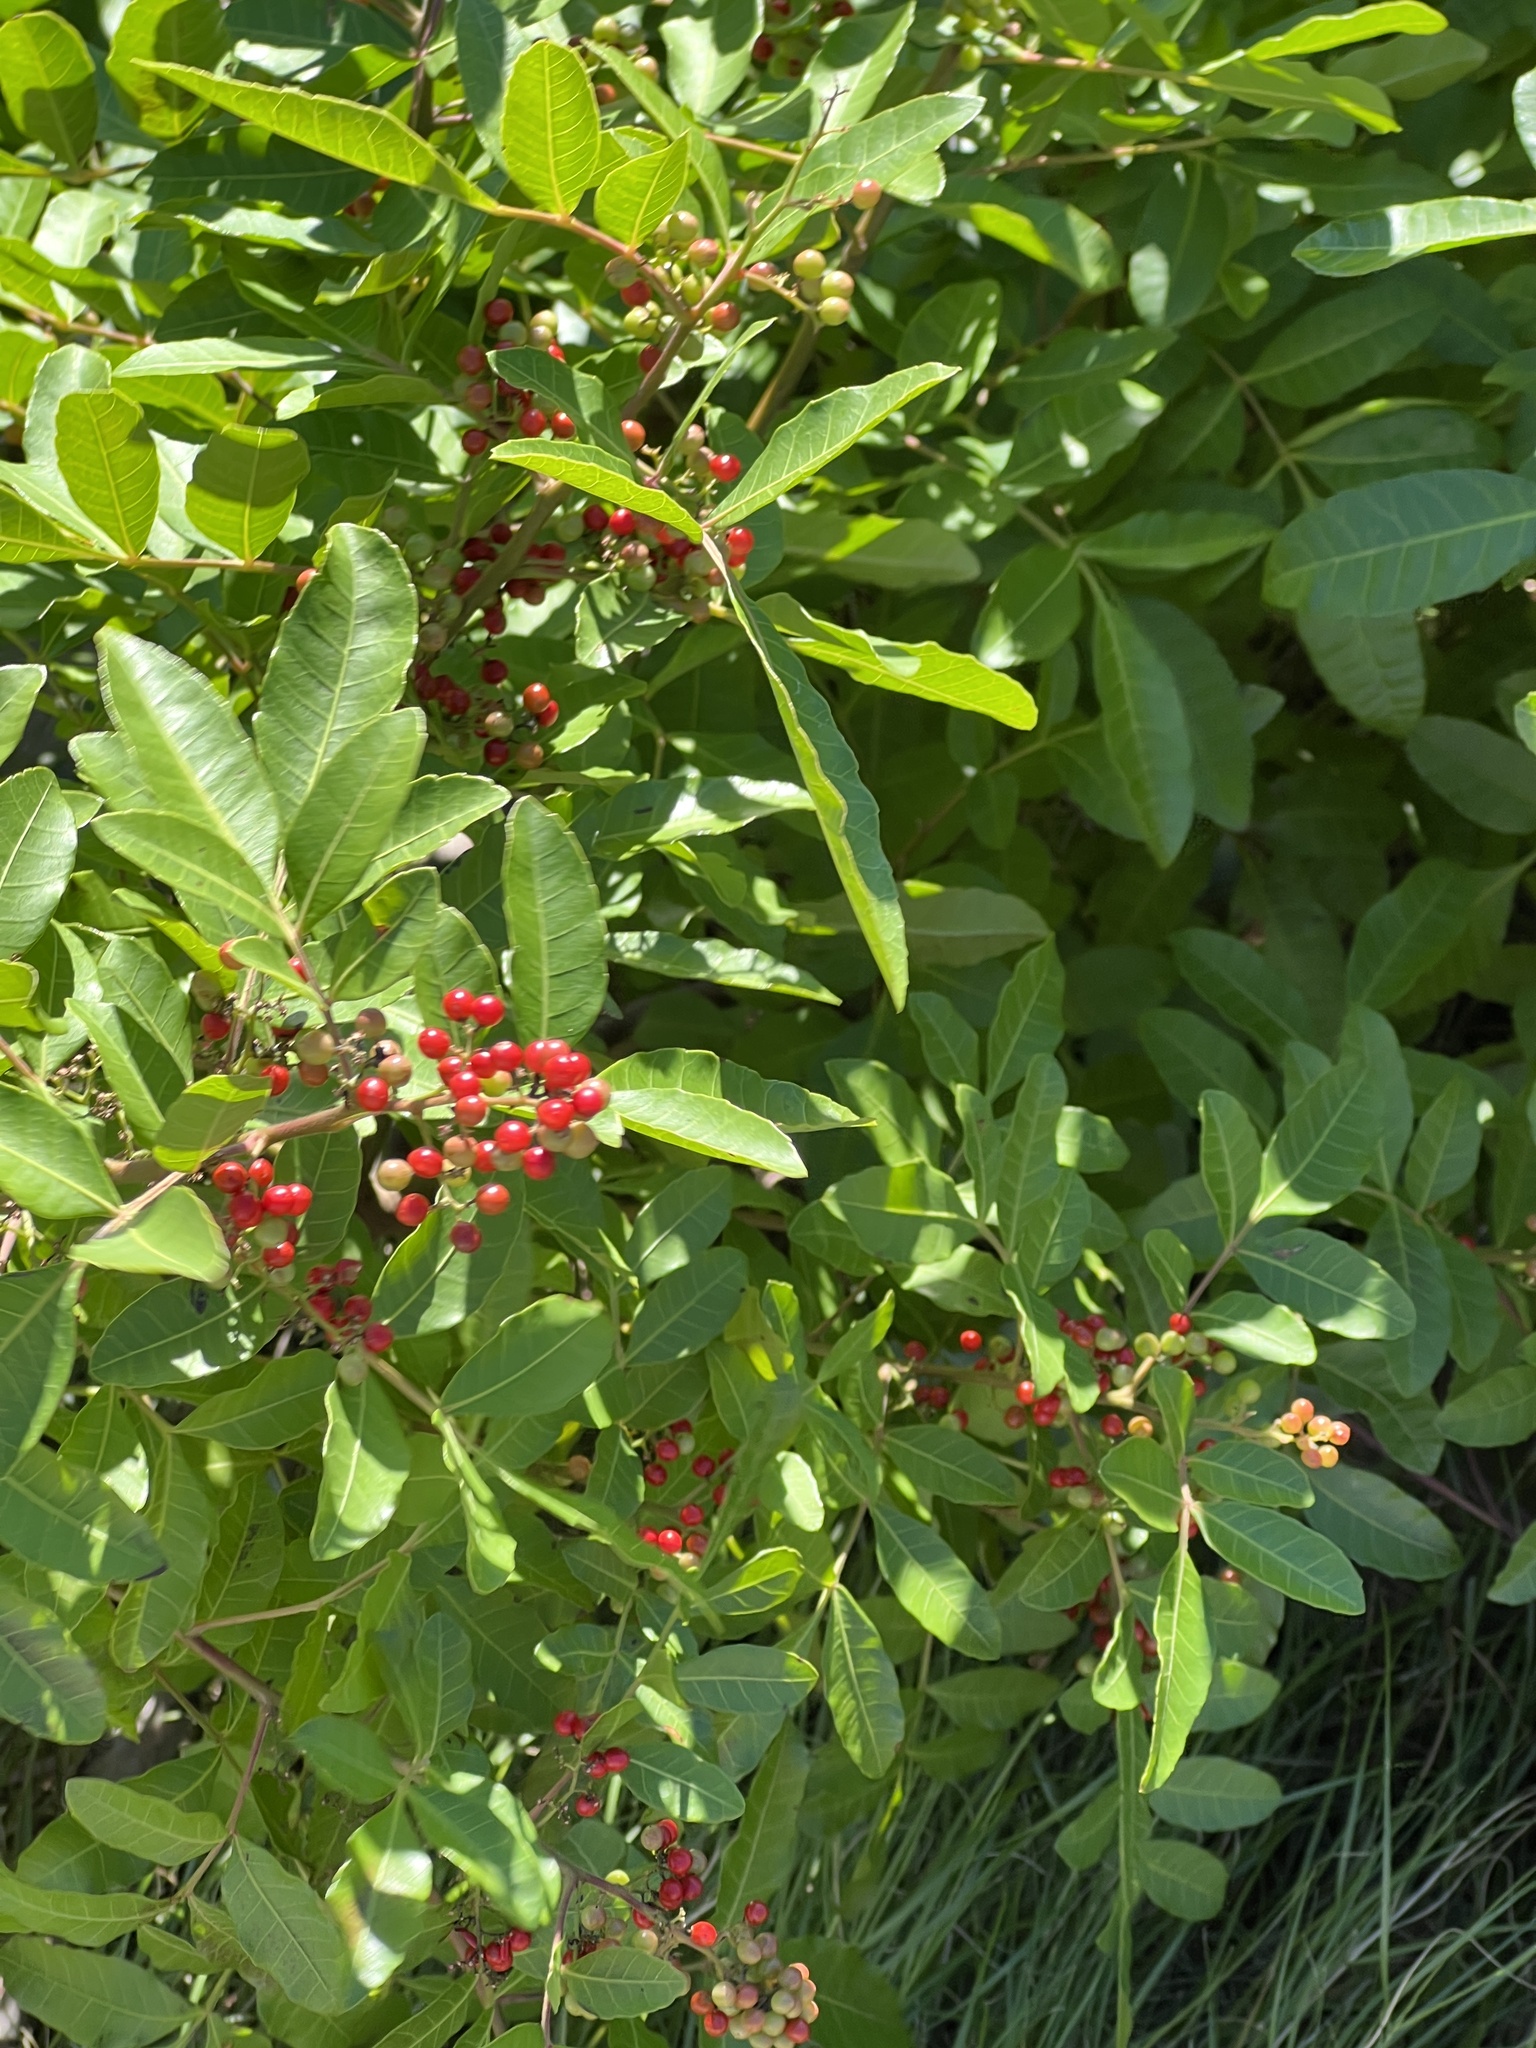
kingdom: Plantae
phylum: Tracheophyta
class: Magnoliopsida
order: Sapindales
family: Anacardiaceae
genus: Schinus
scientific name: Schinus terebinthifolia
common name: Brazilian peppertree
